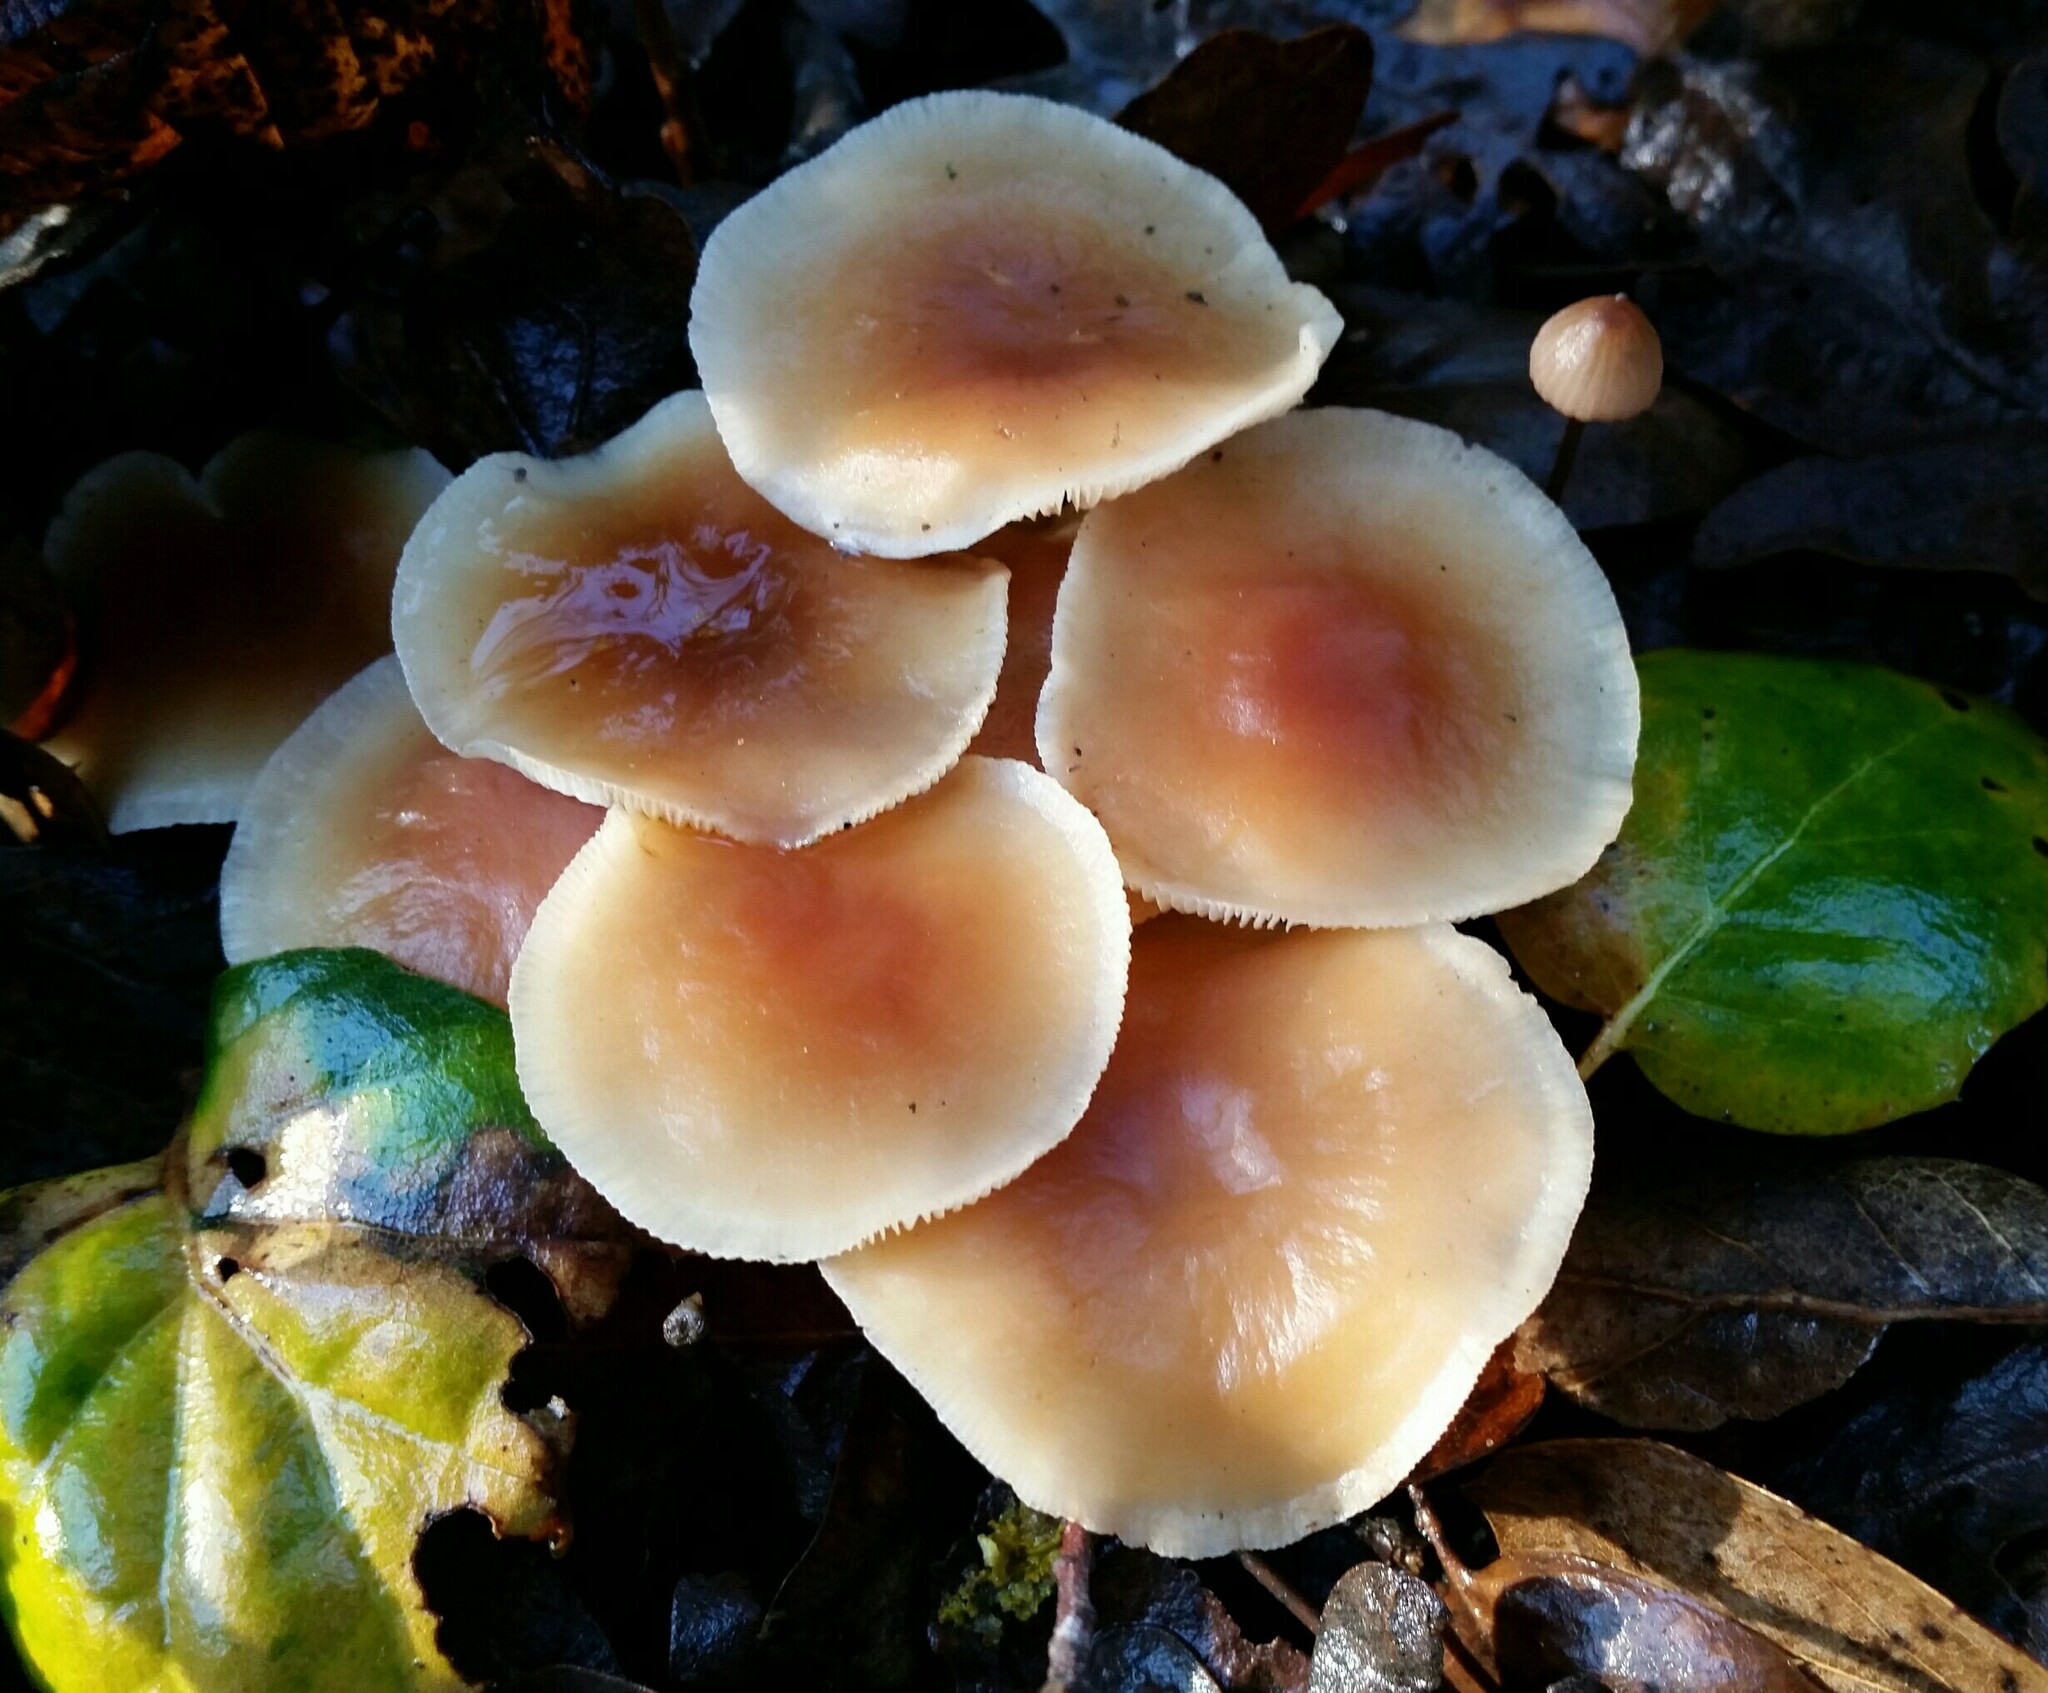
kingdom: Fungi
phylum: Basidiomycota
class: Agaricomycetes
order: Agaricales
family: Omphalotaceae
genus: Gymnopus
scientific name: Gymnopus dryophilus
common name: Penny top
